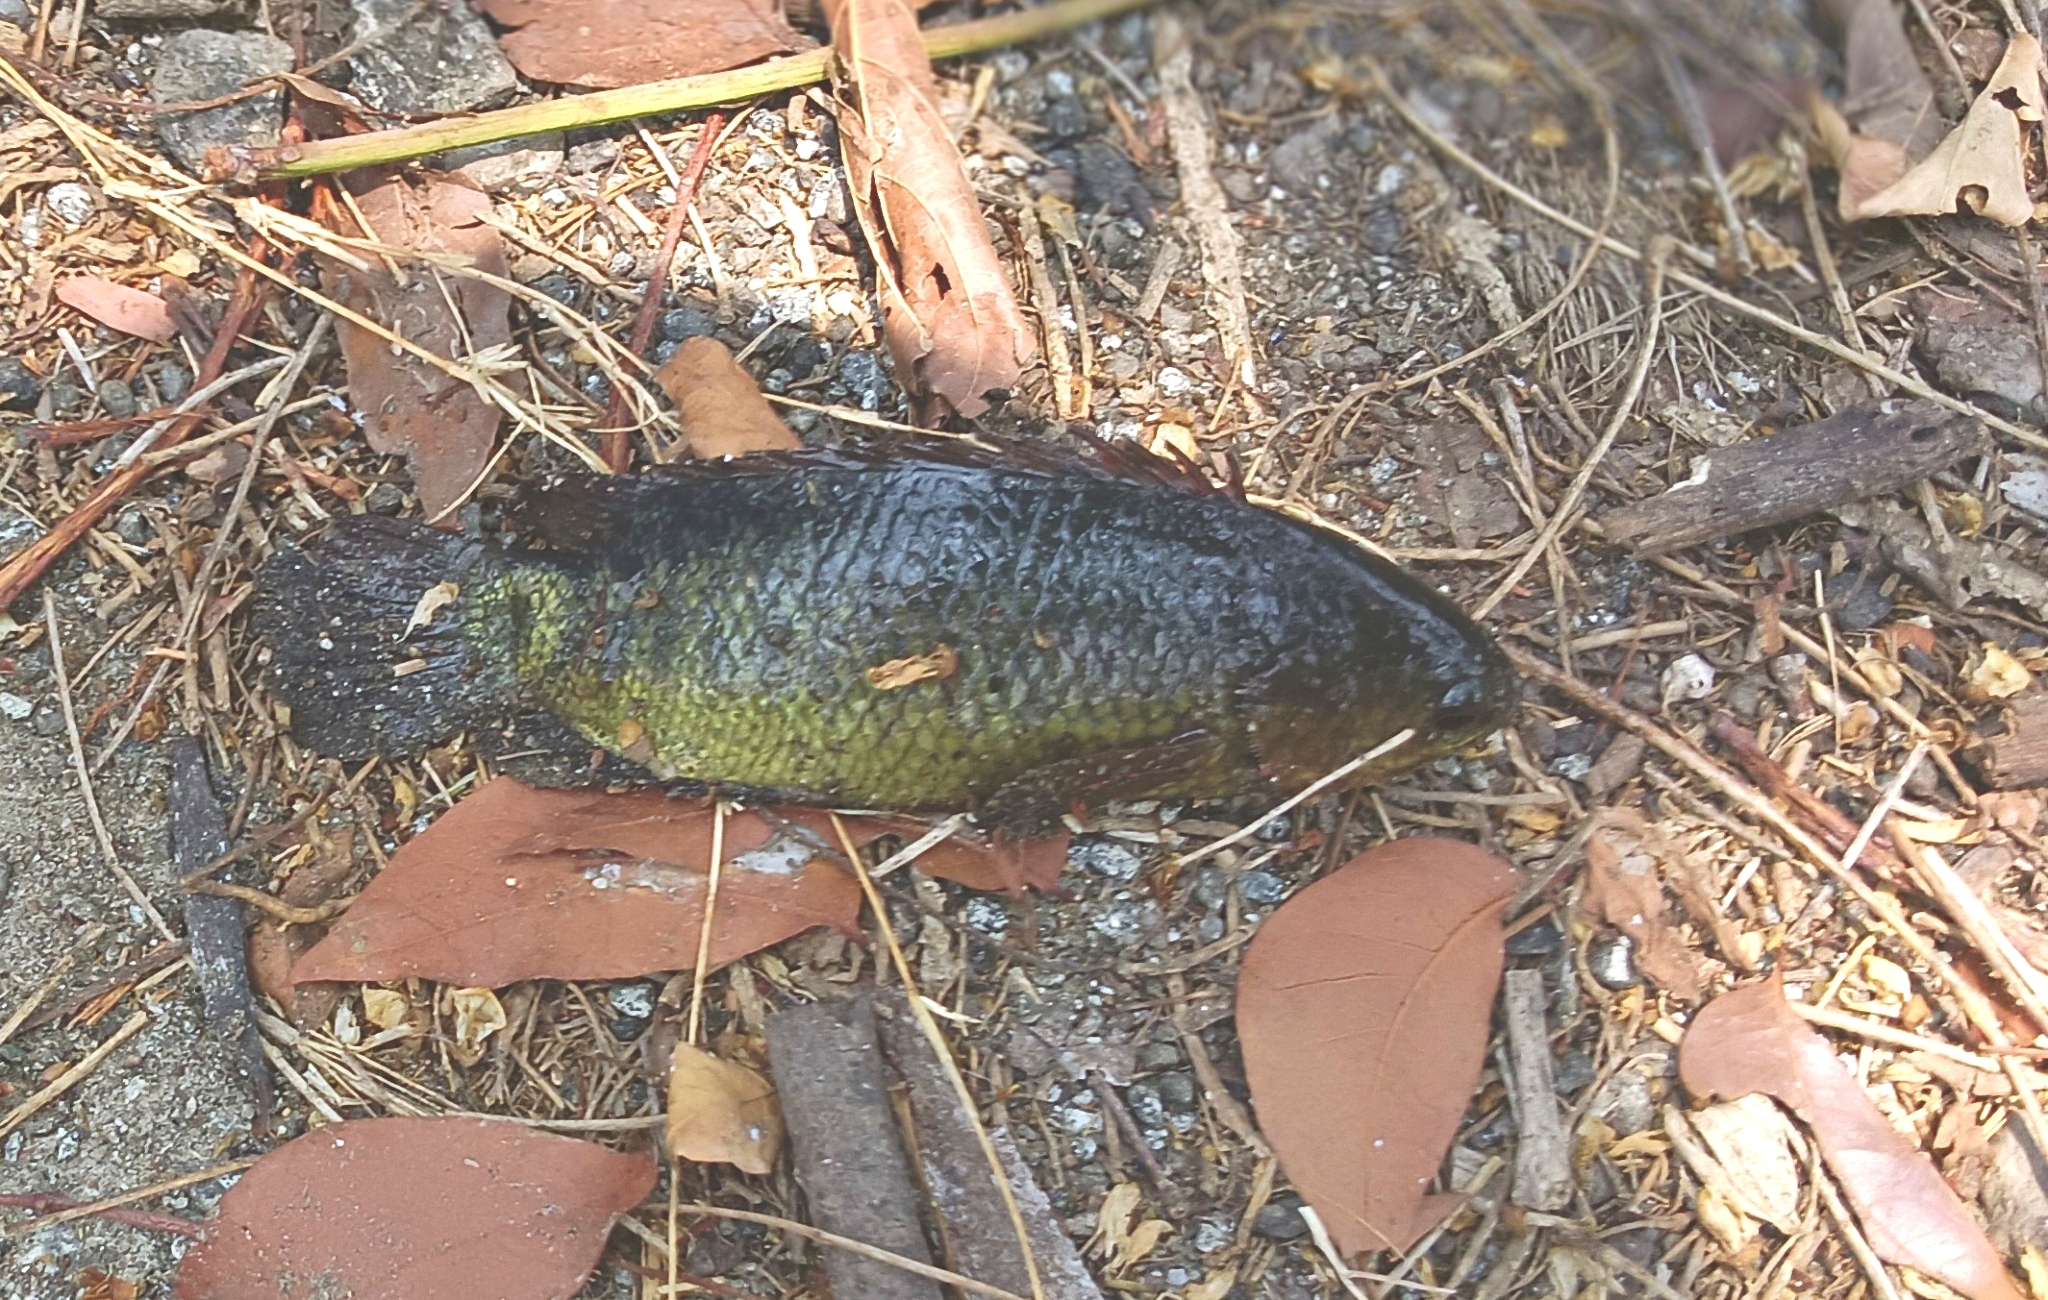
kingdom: Animalia
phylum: Chordata
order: Perciformes
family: Anabantidae
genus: Anabas
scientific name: Anabas testudineus
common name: Climbing perch
